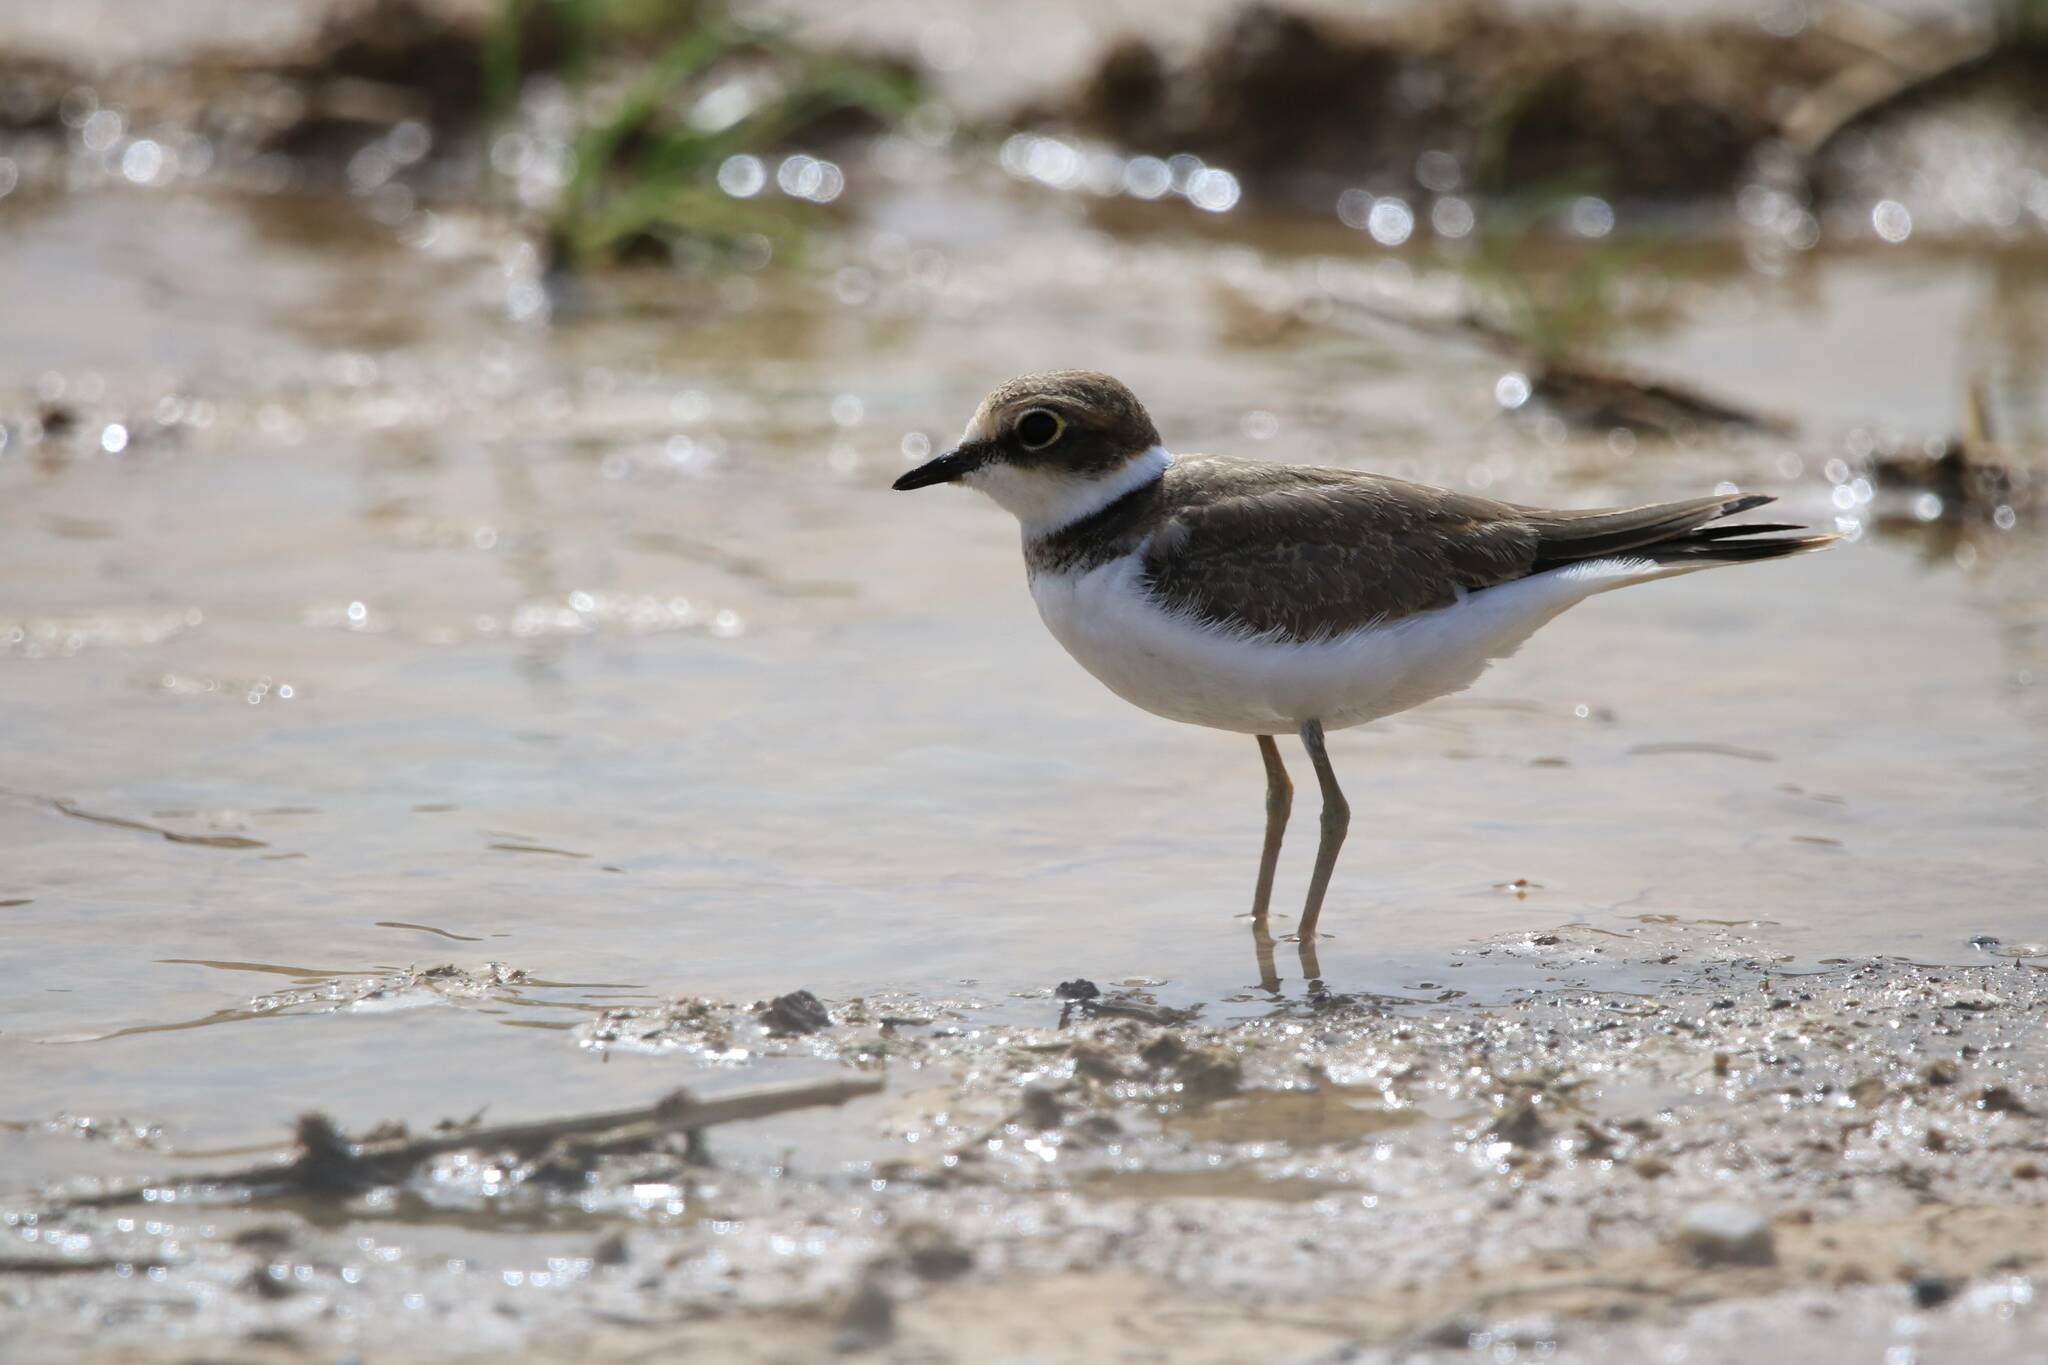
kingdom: Animalia
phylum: Chordata
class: Aves
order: Charadriiformes
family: Charadriidae
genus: Charadrius
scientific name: Charadrius dubius
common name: Little ringed plover
